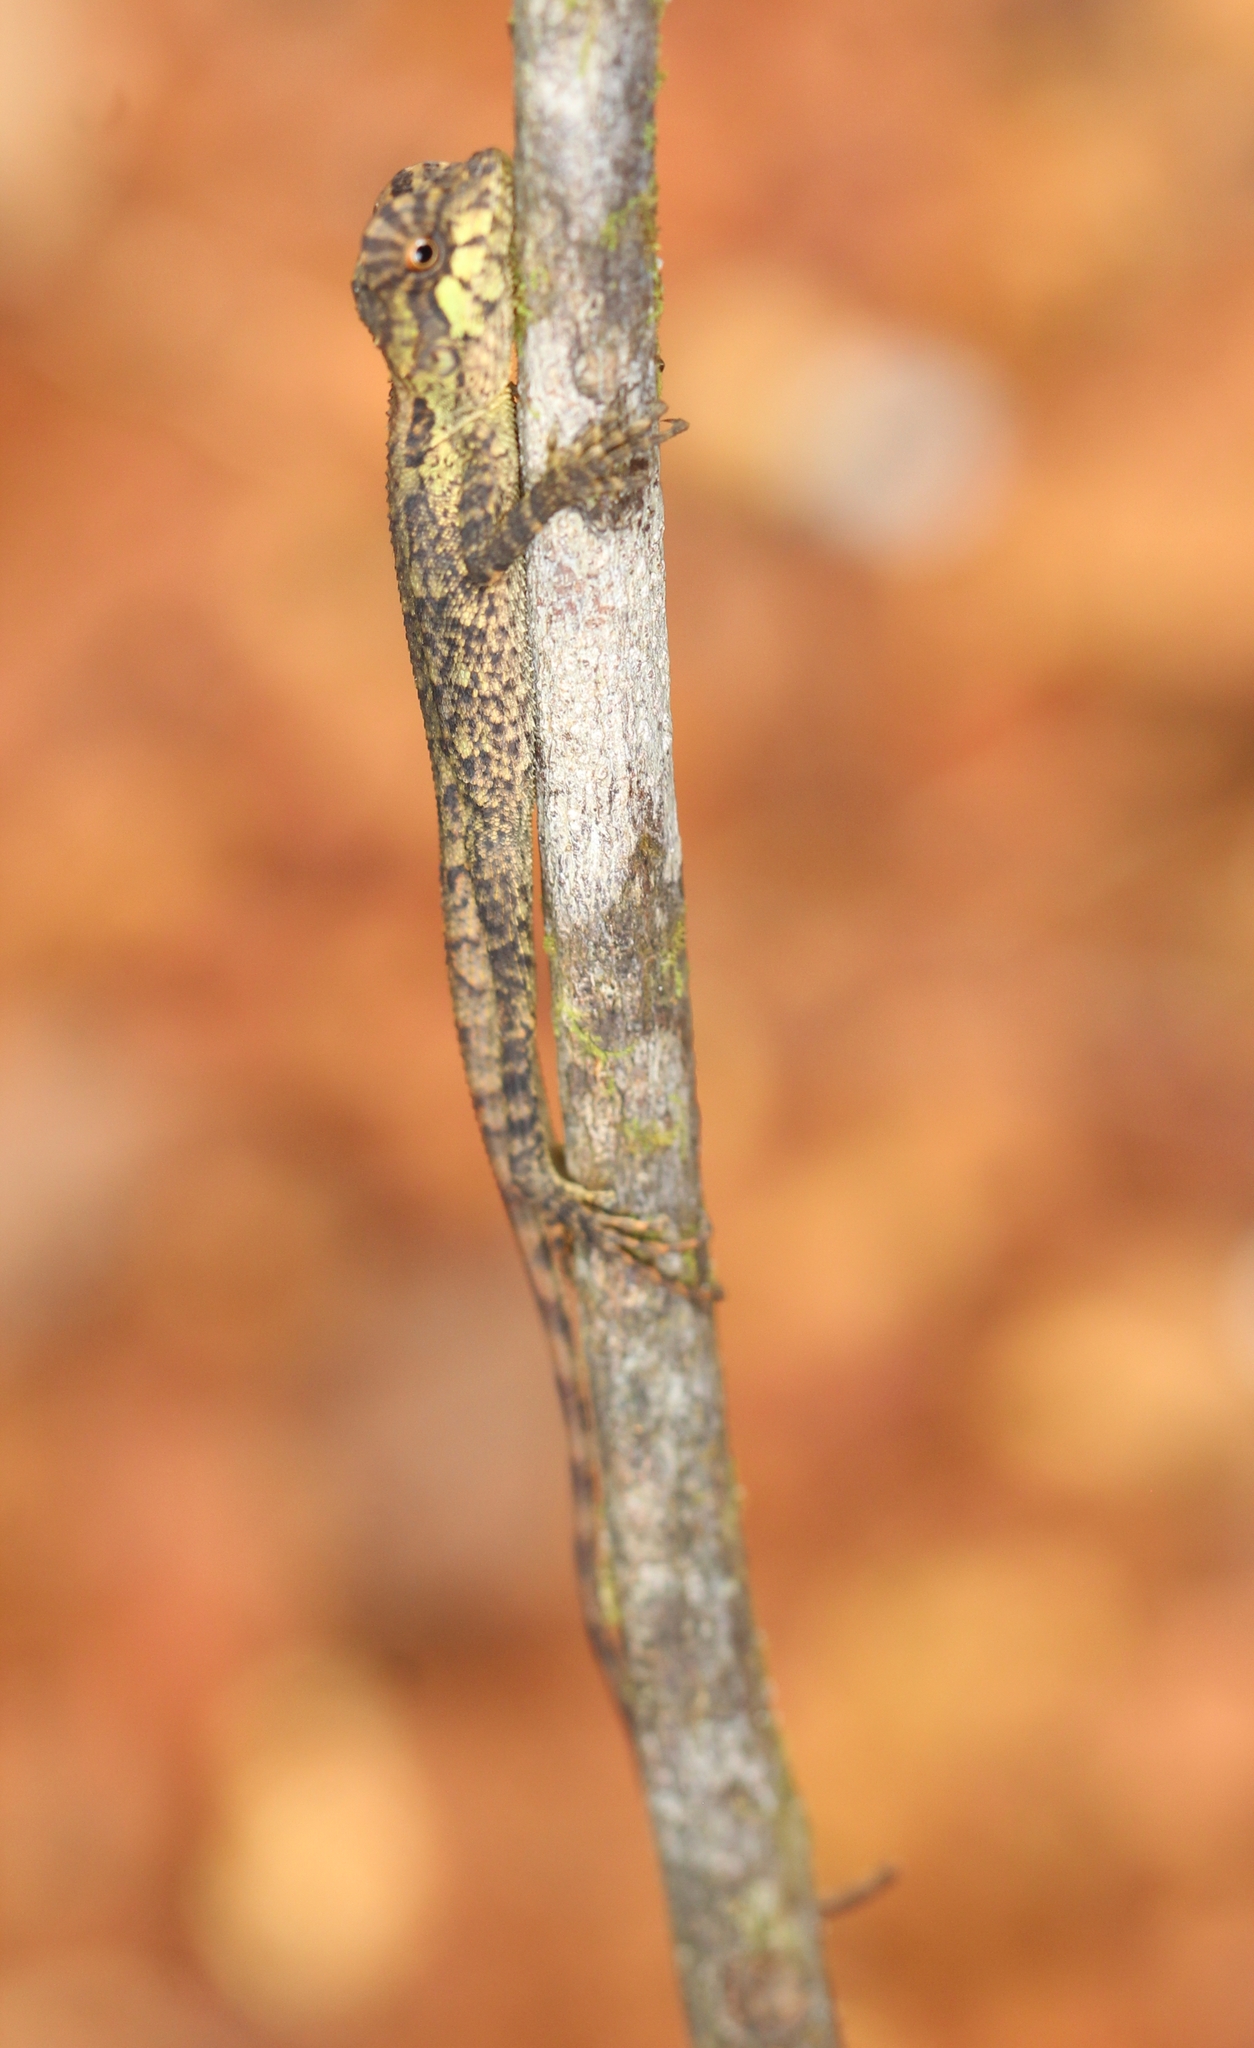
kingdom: Animalia
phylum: Chordata
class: Squamata
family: Agamidae
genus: Monilesaurus
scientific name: Monilesaurus rouxii
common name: Roux's forest lizard
